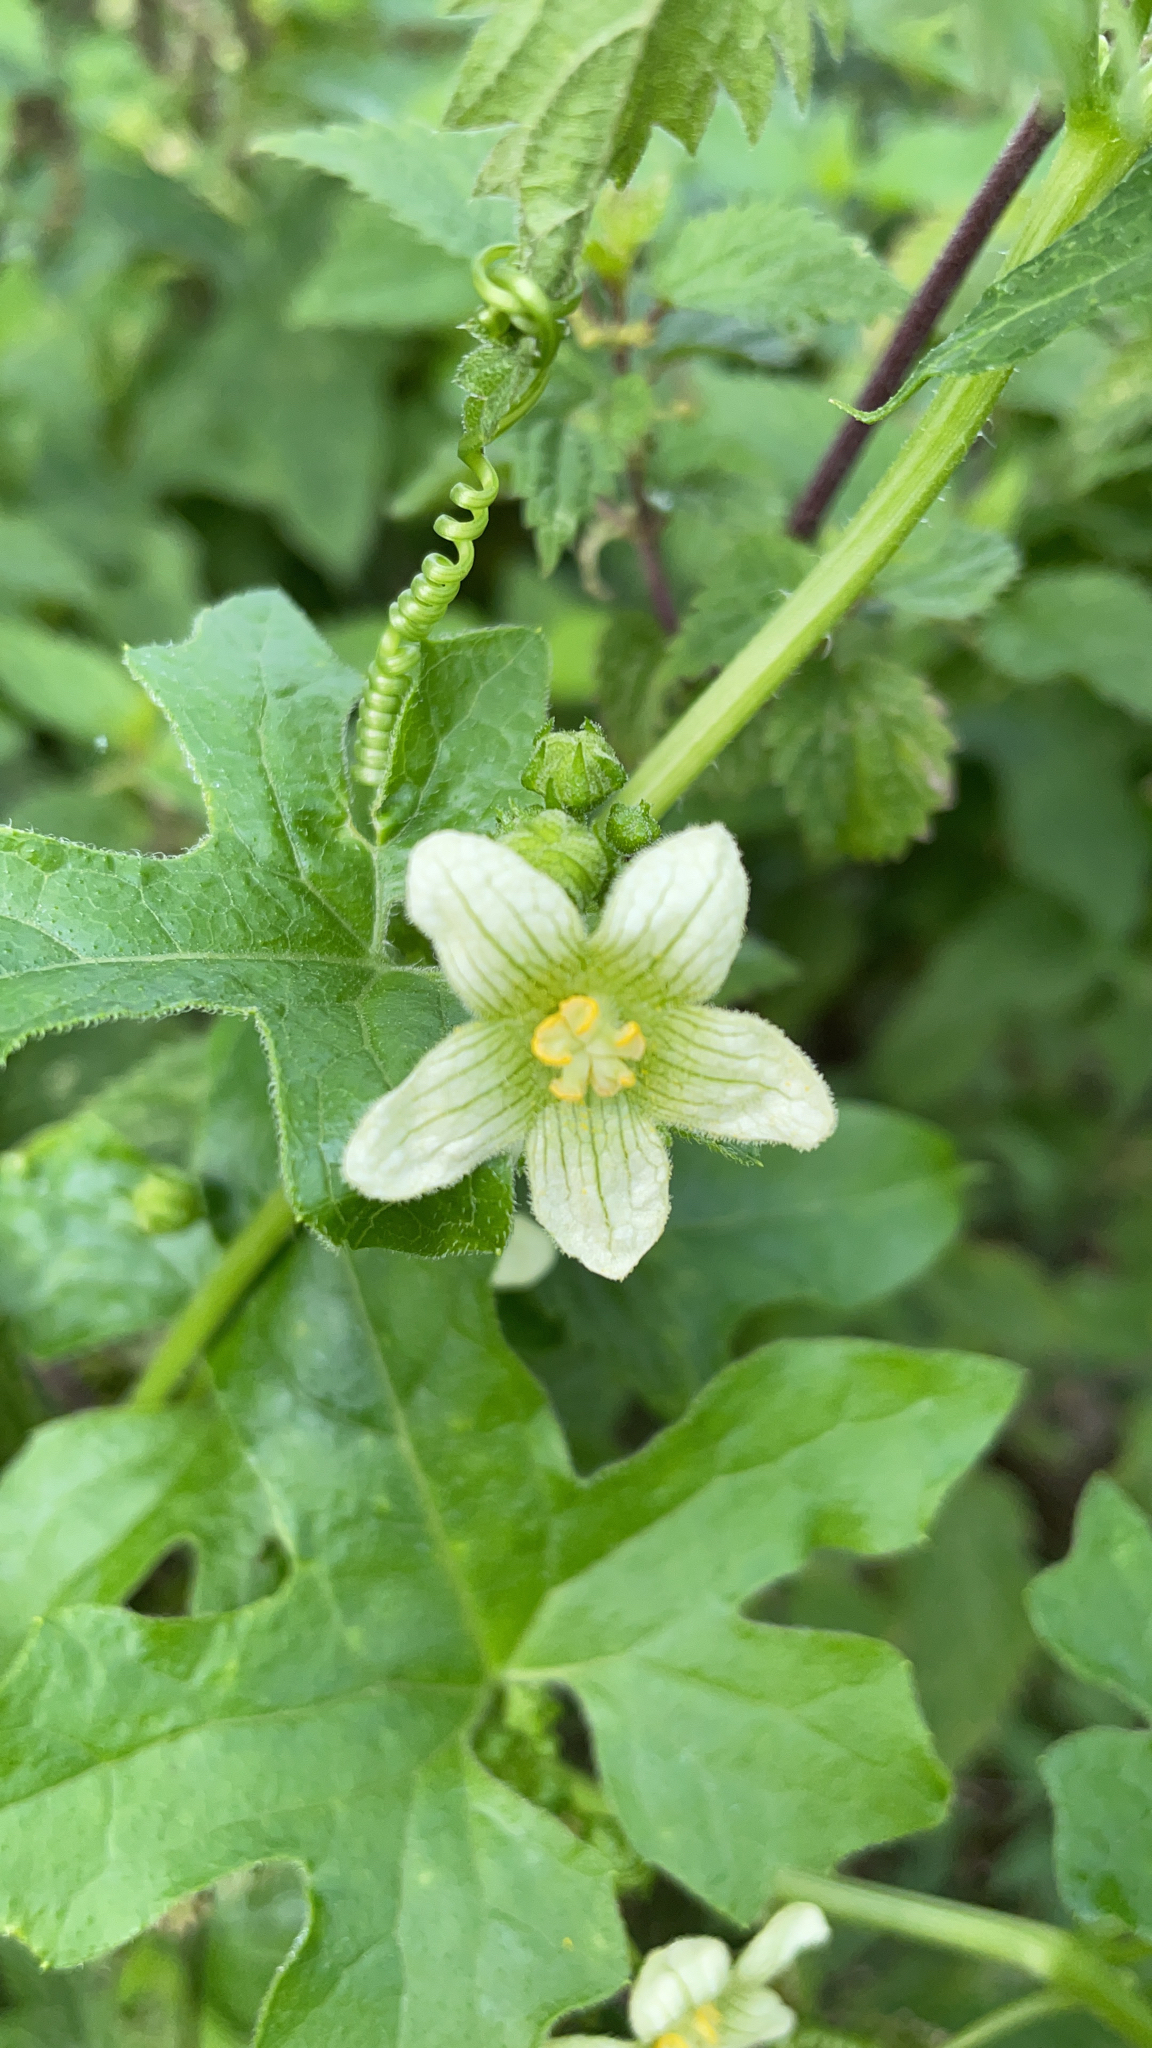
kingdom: Plantae
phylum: Tracheophyta
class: Magnoliopsida
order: Cucurbitales
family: Cucurbitaceae
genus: Bryonia
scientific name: Bryonia cretica
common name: Cretan bryony
